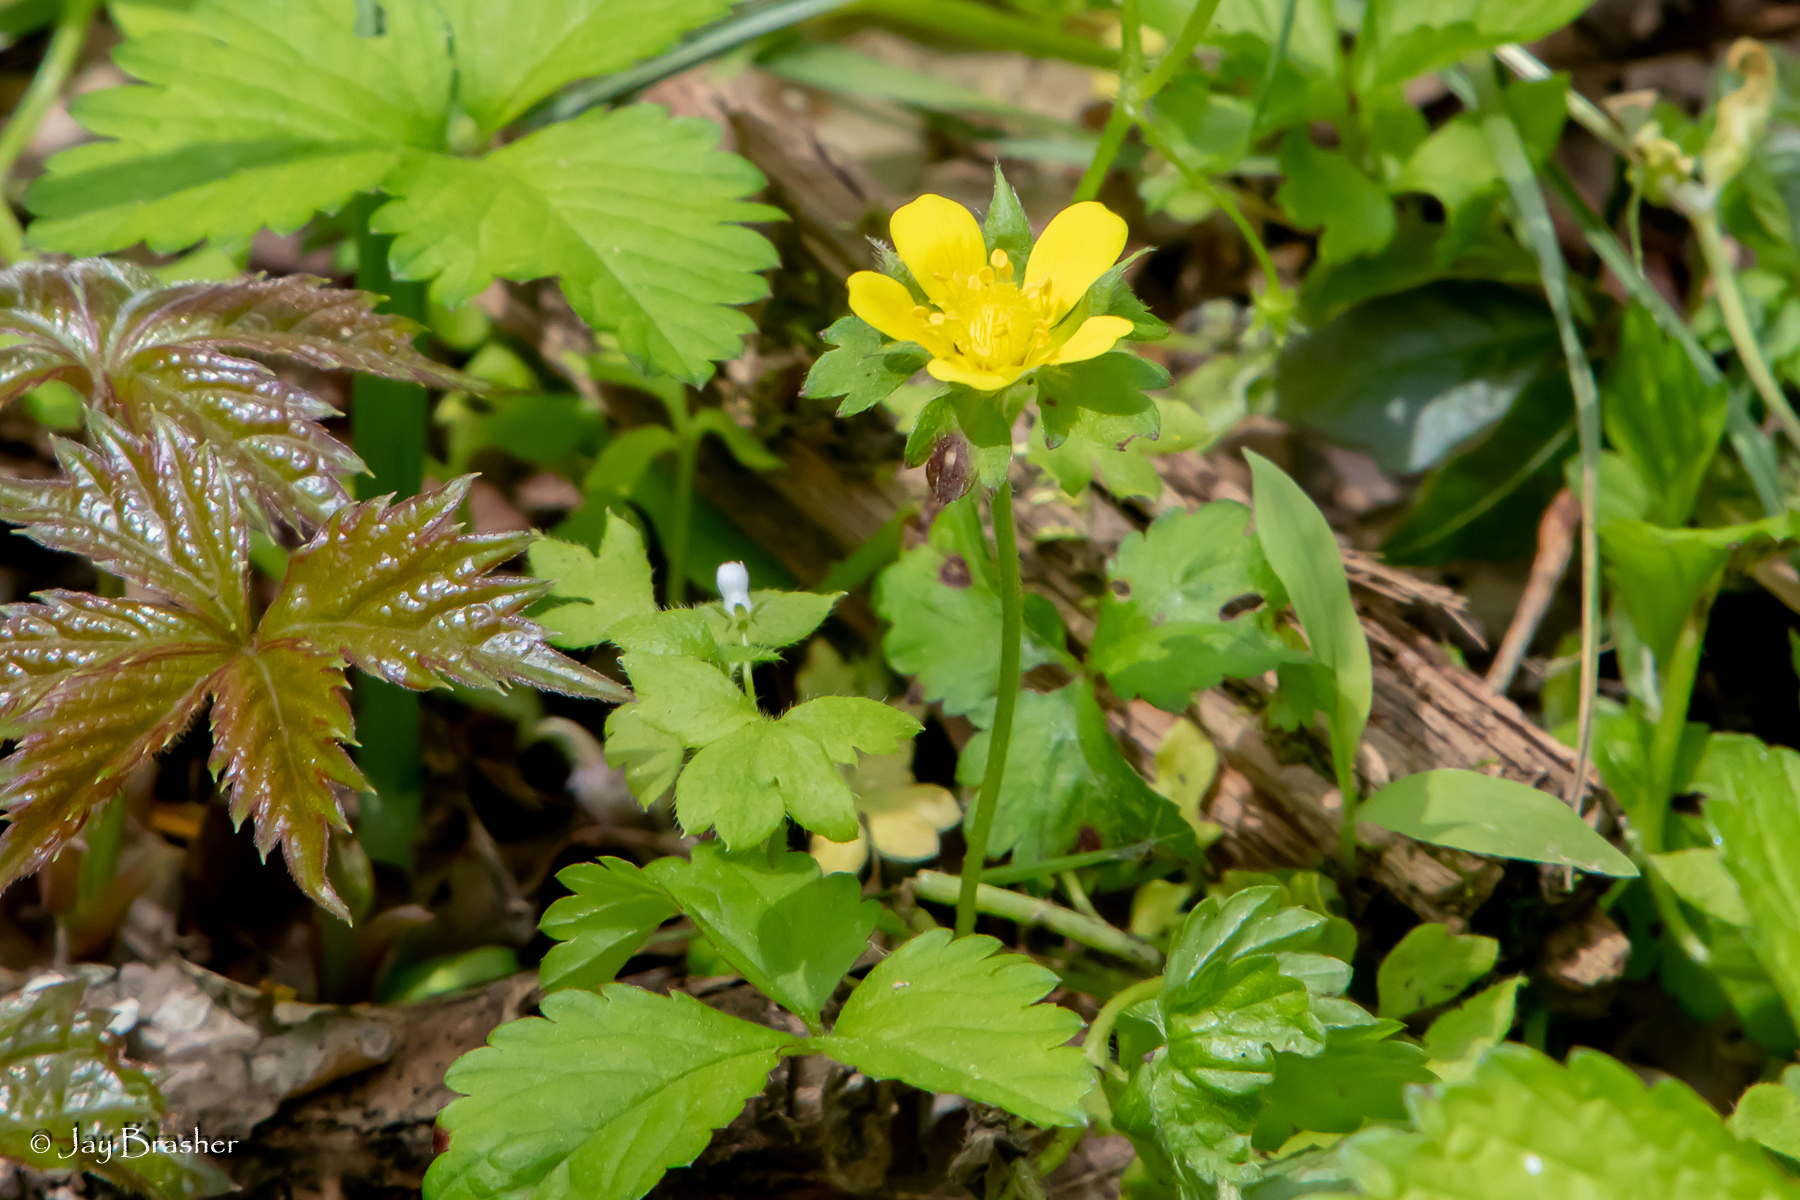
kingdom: Plantae
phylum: Tracheophyta
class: Magnoliopsida
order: Rosales
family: Rosaceae
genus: Potentilla
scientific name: Potentilla indica
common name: Yellow-flowered strawberry
